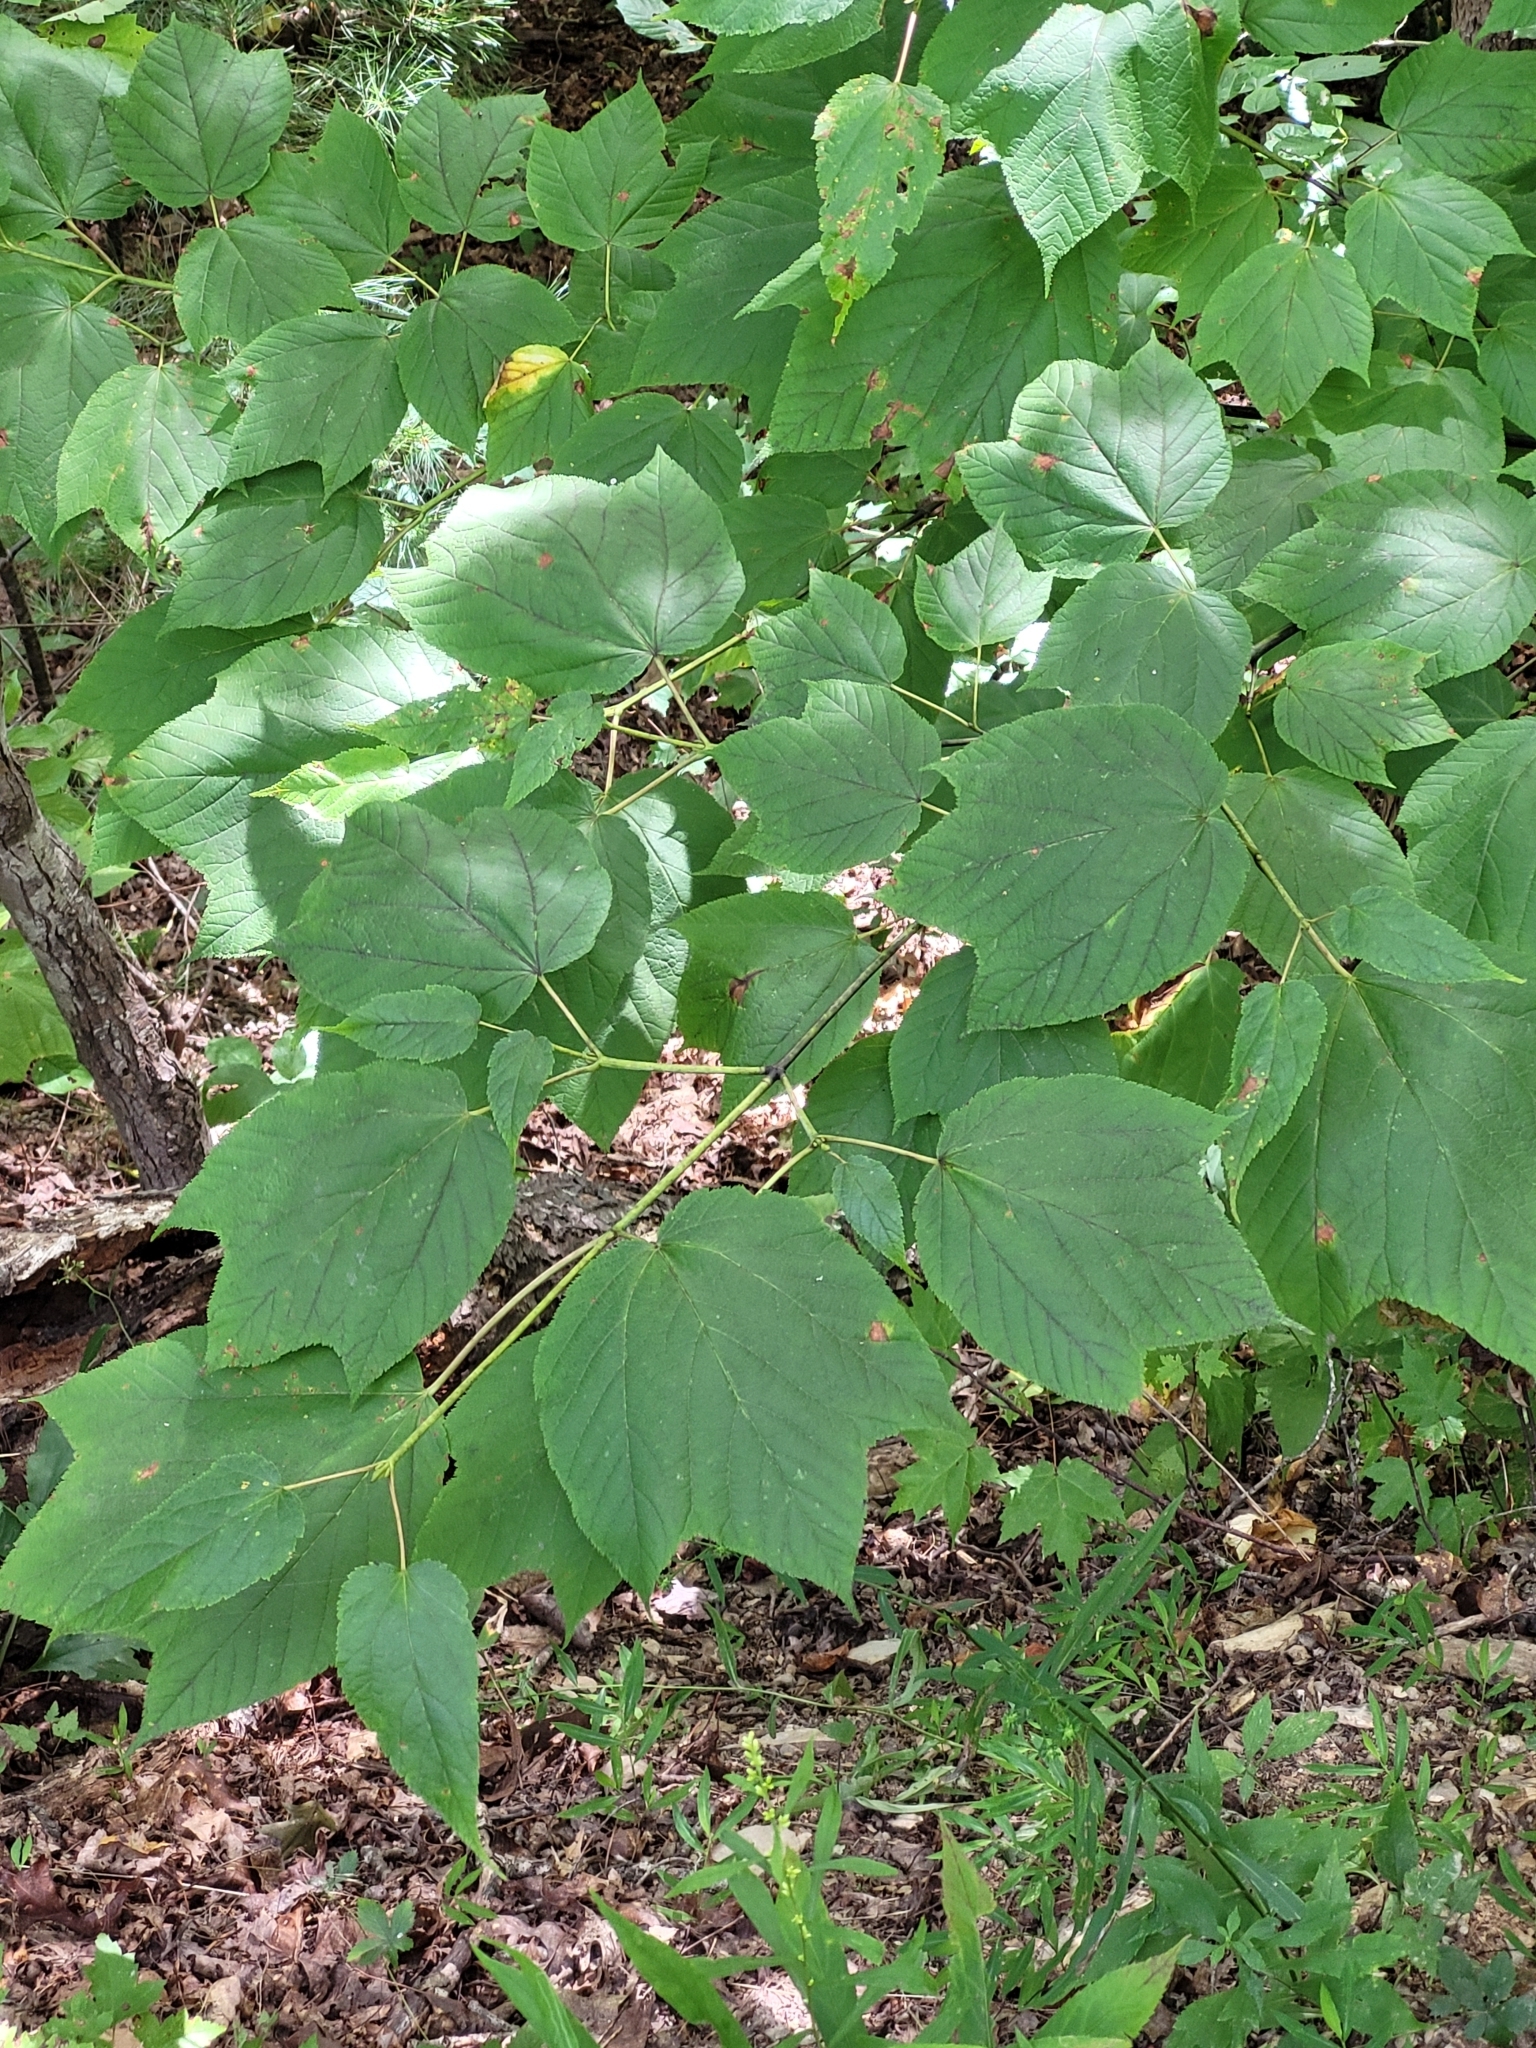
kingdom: Plantae
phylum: Tracheophyta
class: Magnoliopsida
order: Sapindales
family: Sapindaceae
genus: Acer
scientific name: Acer pensylvanicum
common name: Moosewood
